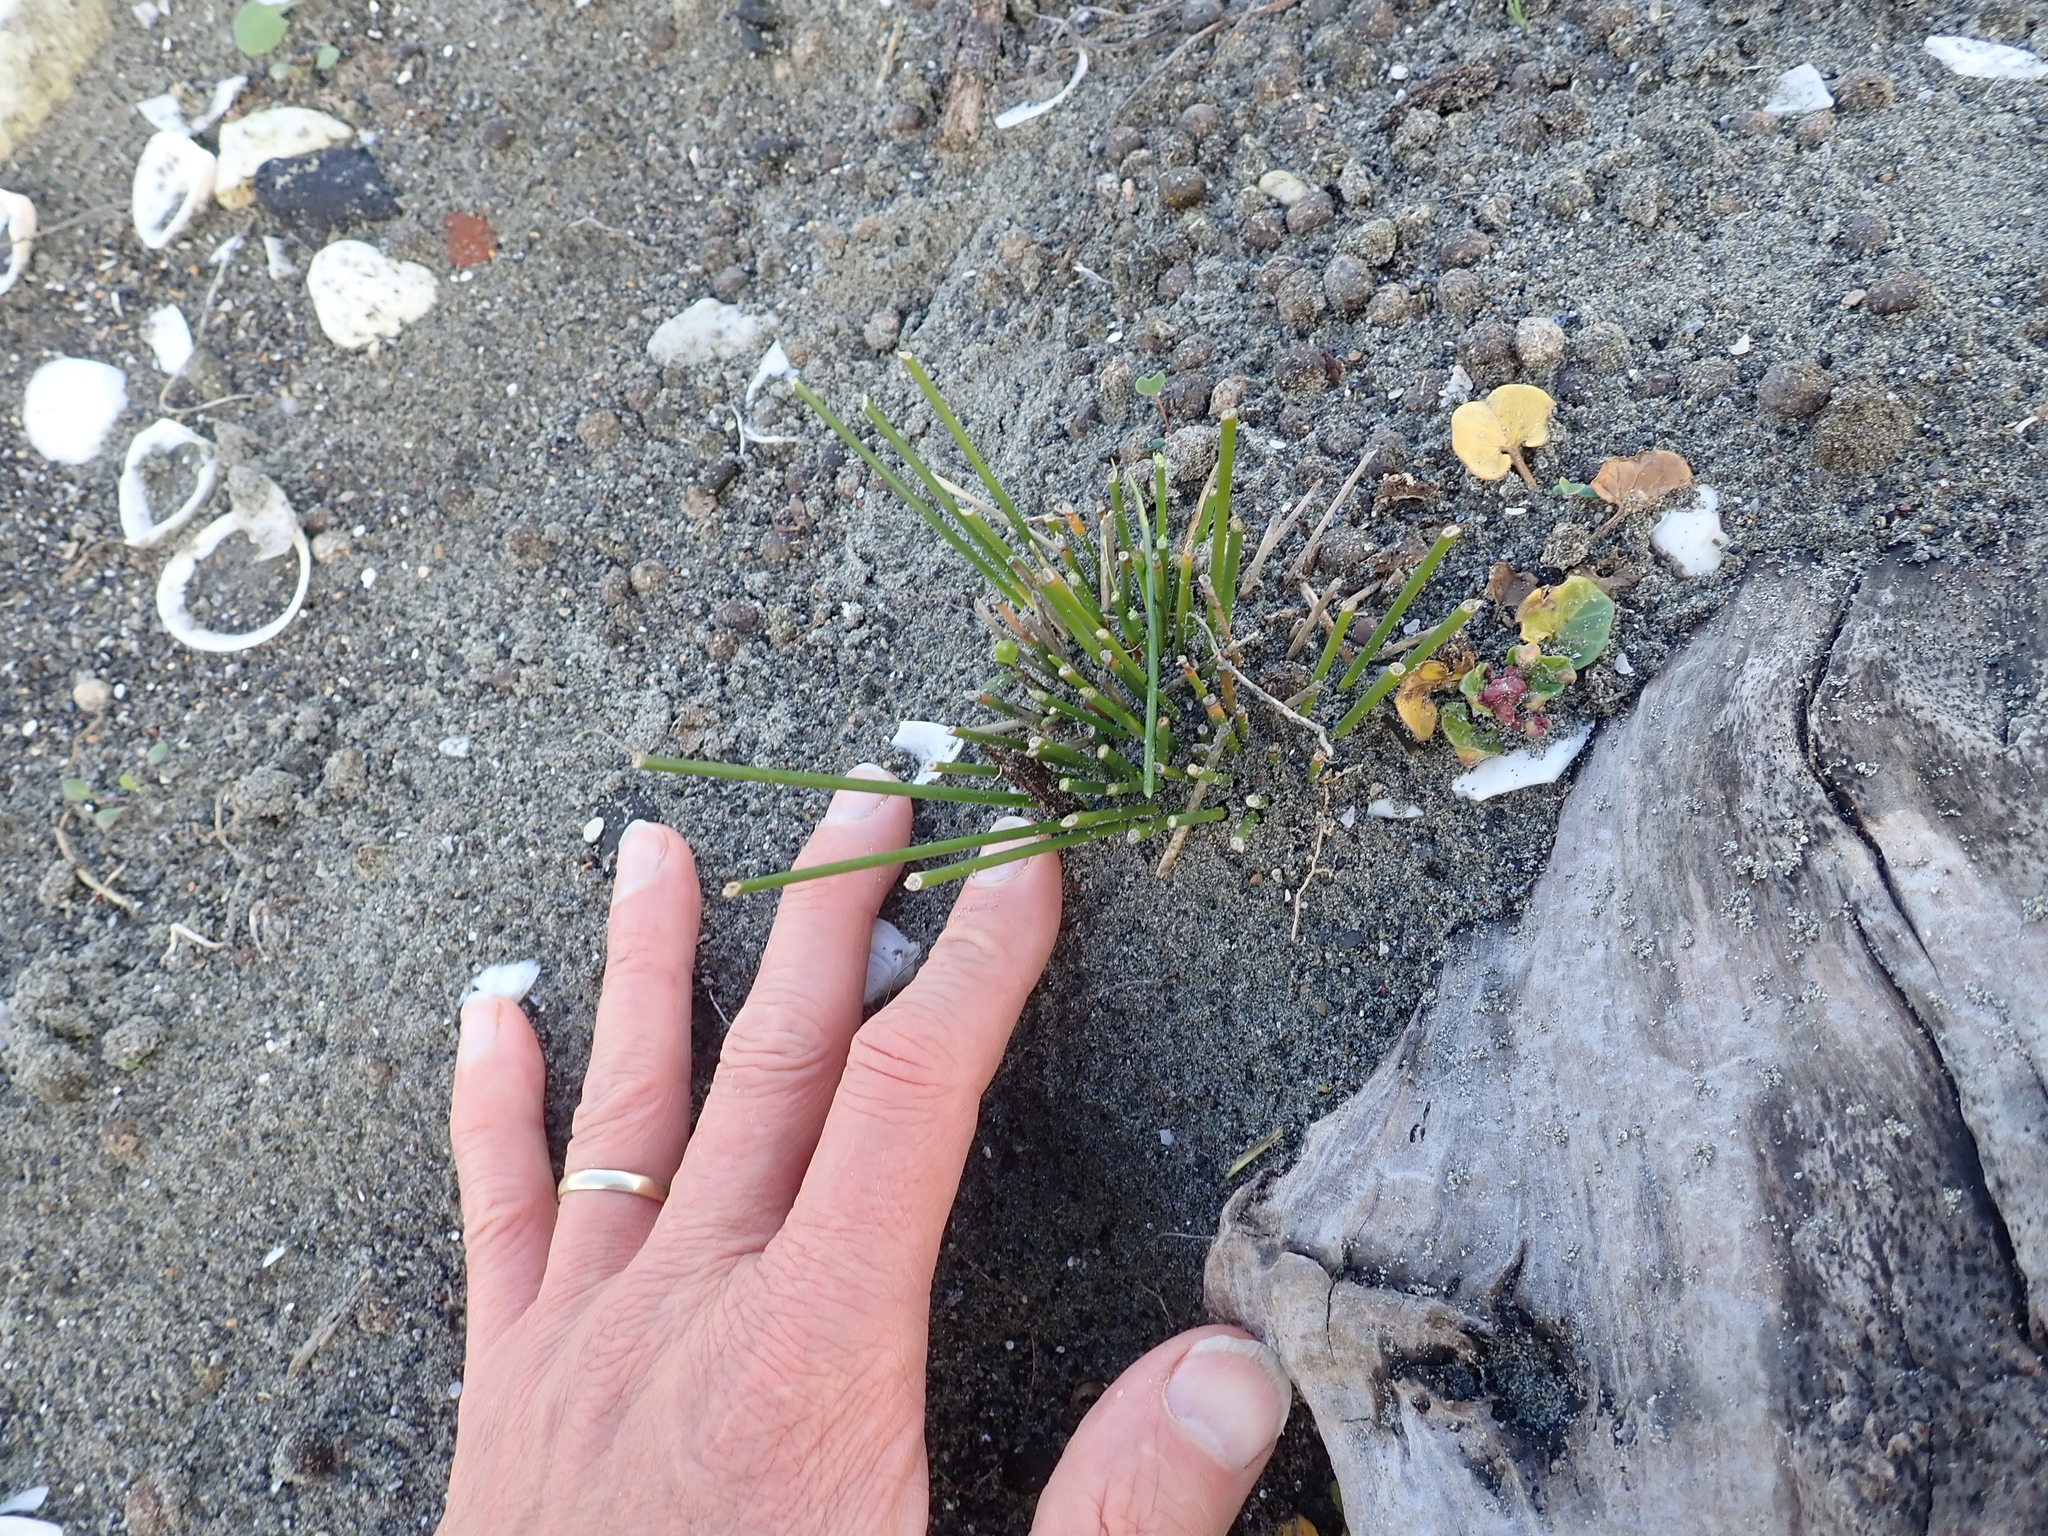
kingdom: Plantae
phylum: Tracheophyta
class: Liliopsida
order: Poales
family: Cyperaceae
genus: Ficinia
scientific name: Ficinia nodosa
